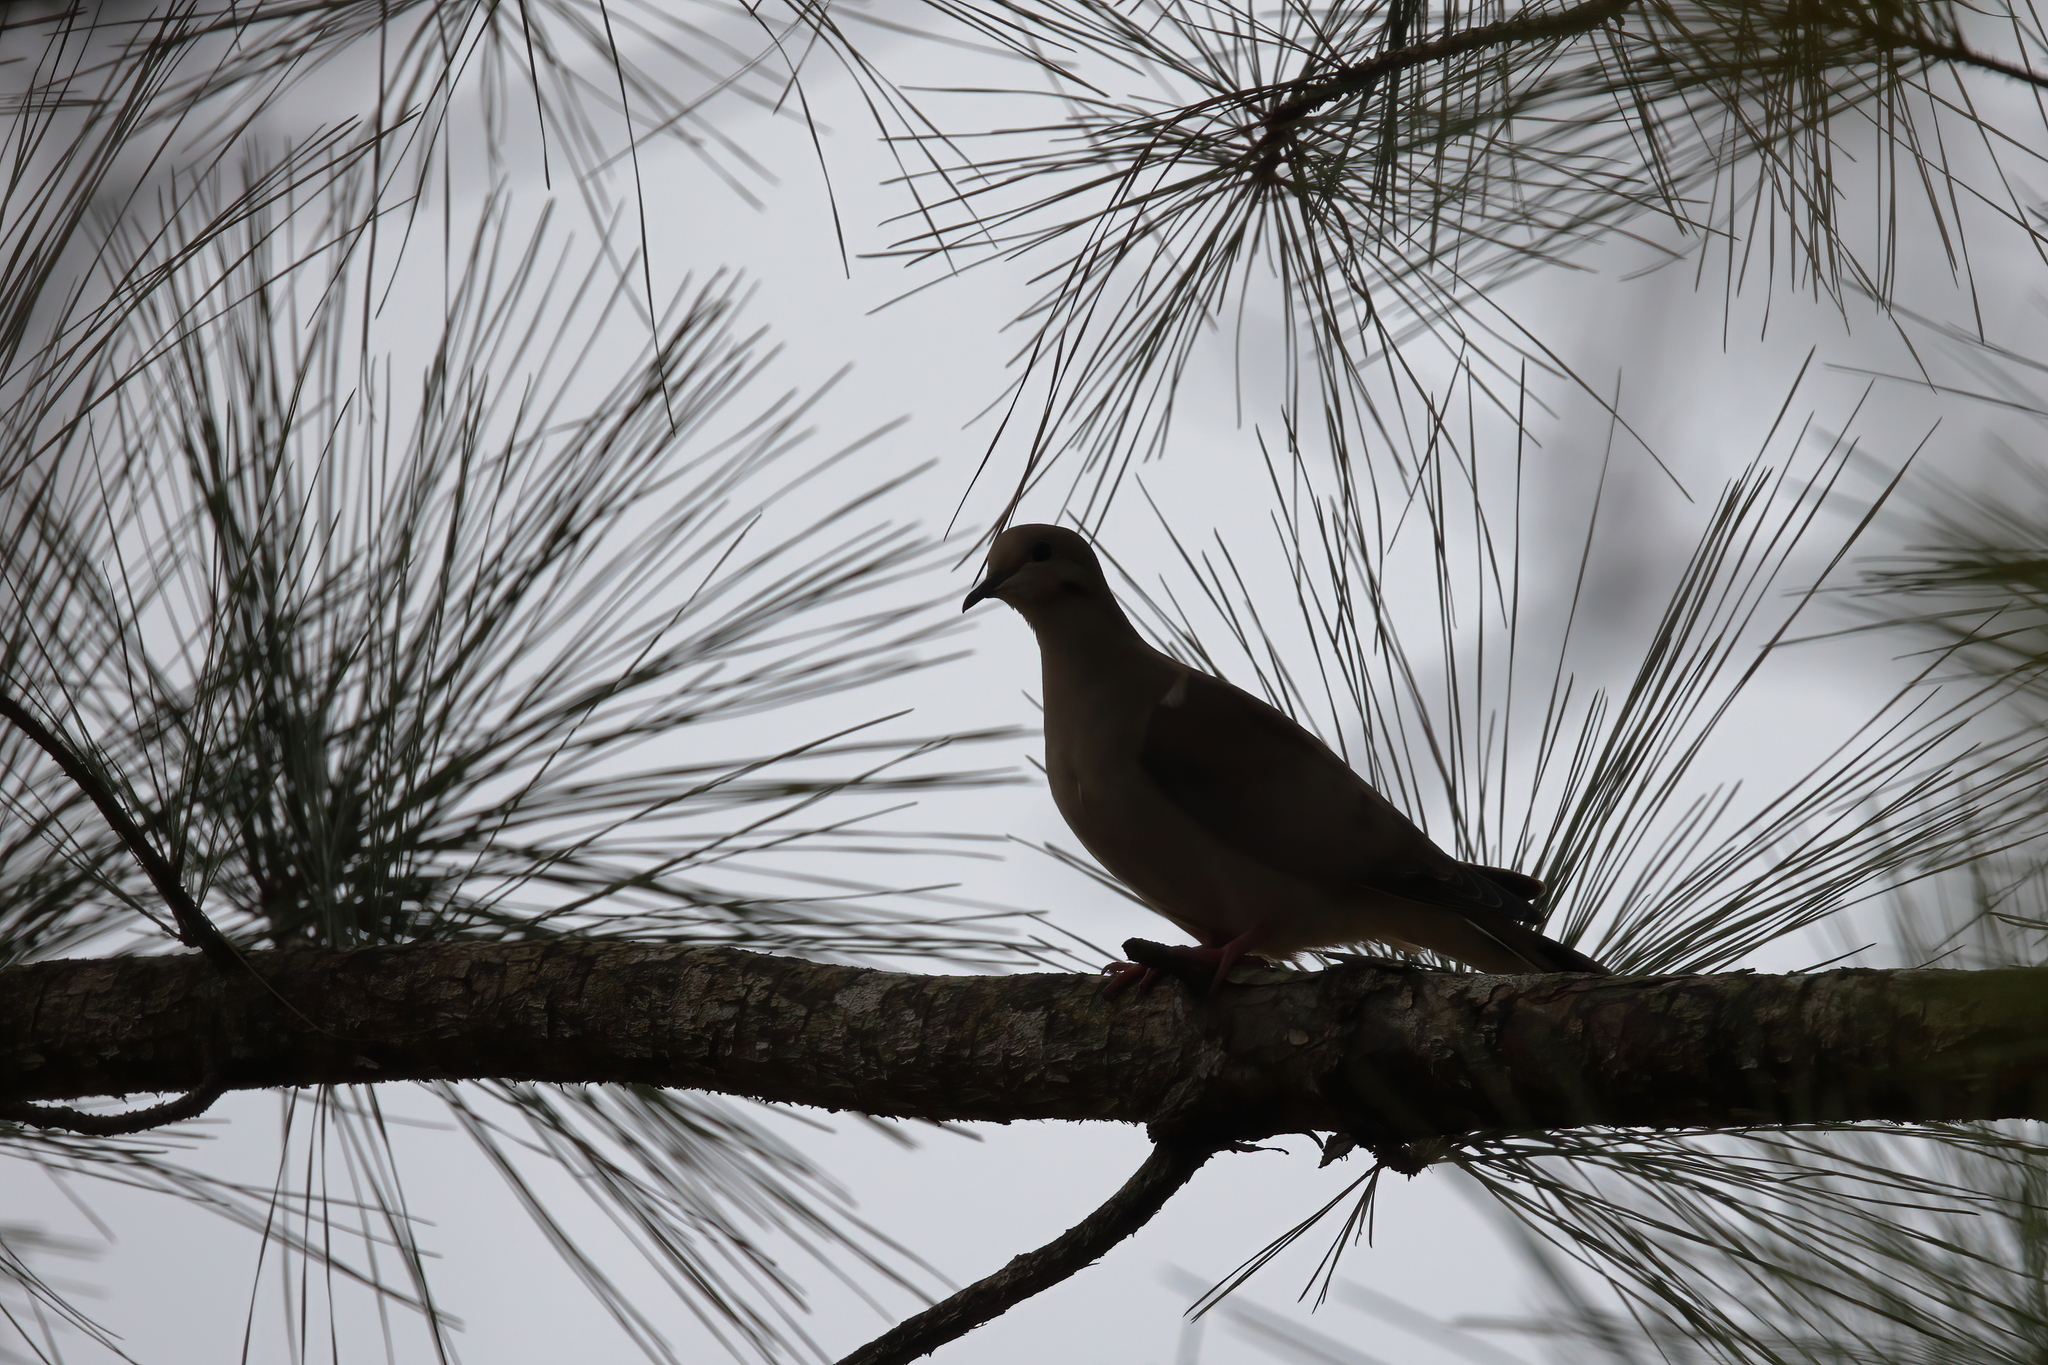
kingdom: Animalia
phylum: Chordata
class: Aves
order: Columbiformes
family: Columbidae
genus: Zenaida
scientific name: Zenaida macroura
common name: Mourning dove
